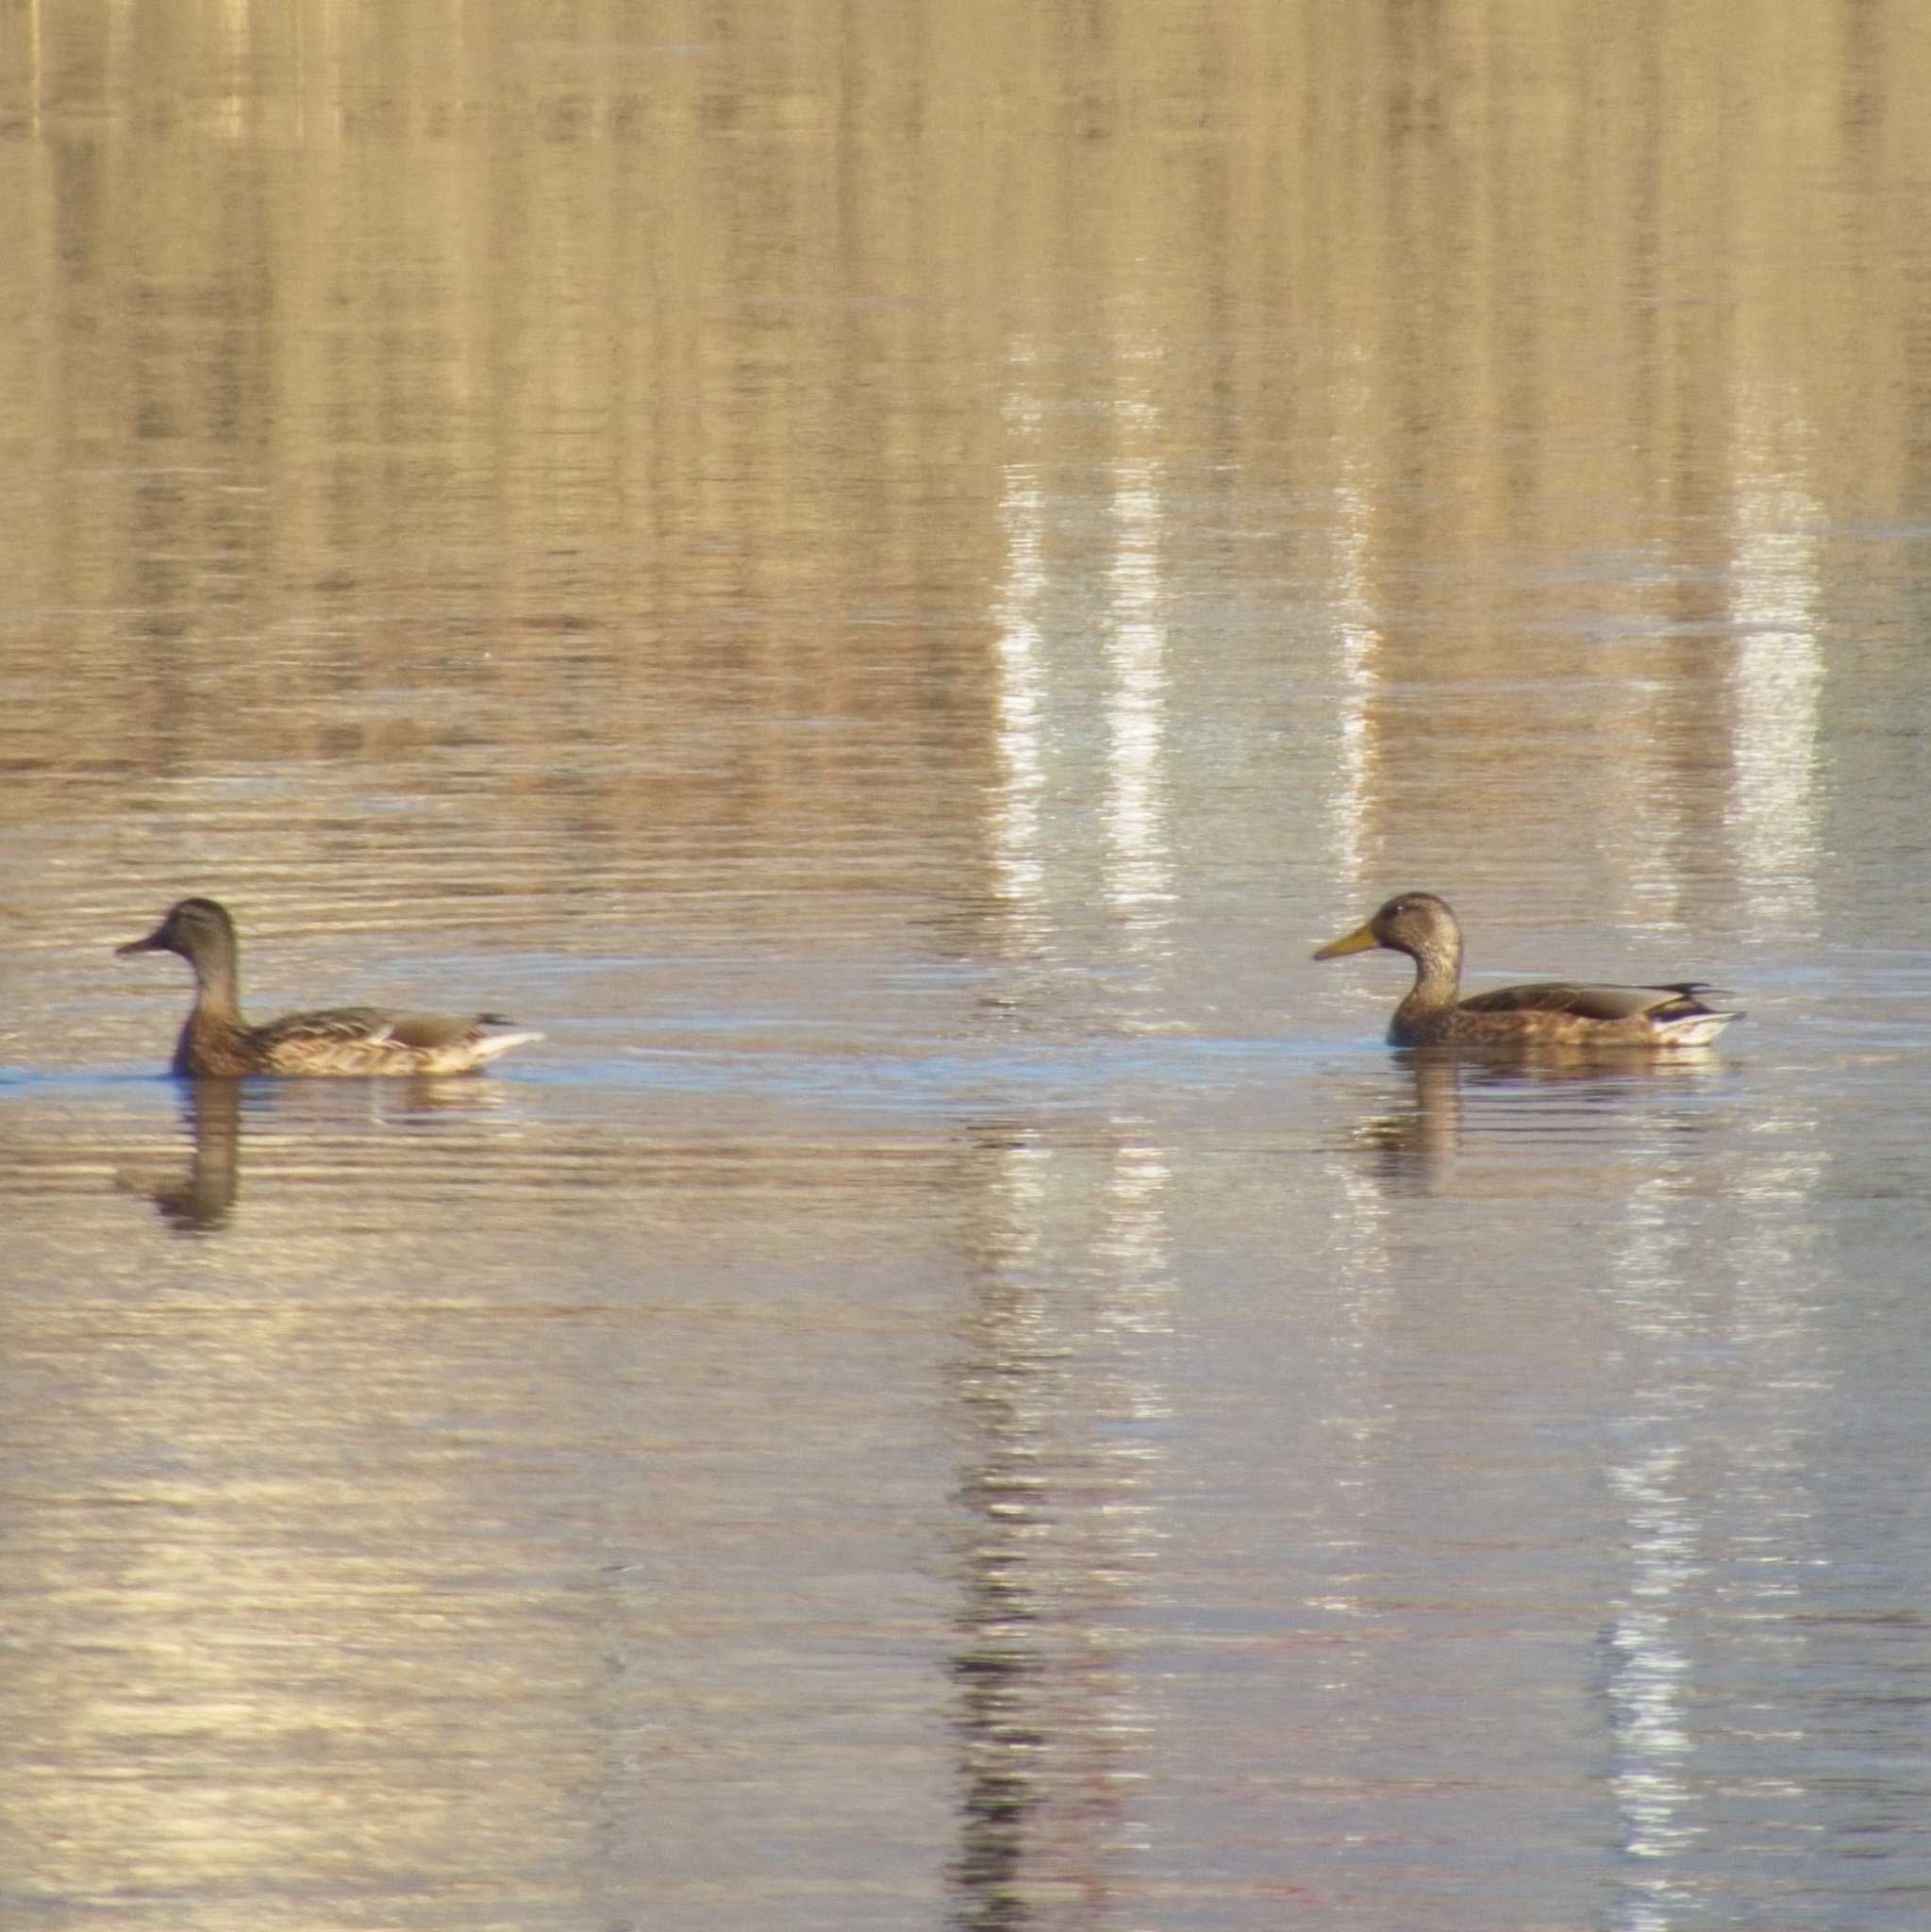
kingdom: Animalia
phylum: Chordata
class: Aves
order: Anseriformes
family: Anatidae
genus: Anas
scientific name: Anas platyrhynchos
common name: Mallard
